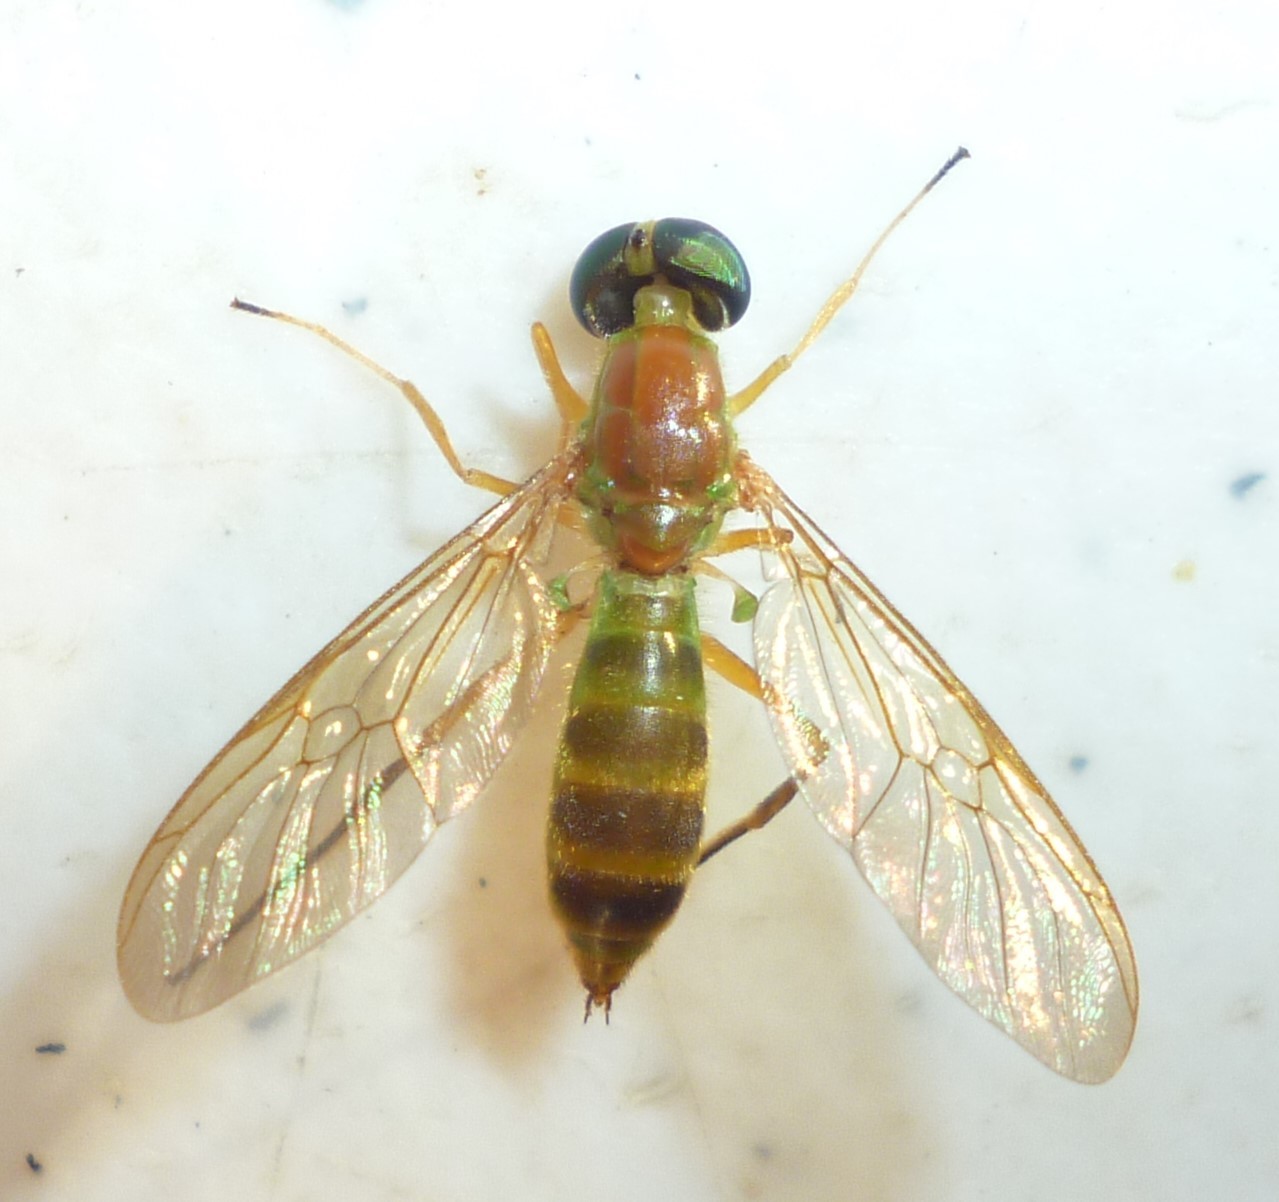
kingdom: Animalia
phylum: Arthropoda
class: Insecta
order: Diptera
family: Stratiomyidae
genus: Ptecticus
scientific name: Ptecticus trivittatus
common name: Compost fly
